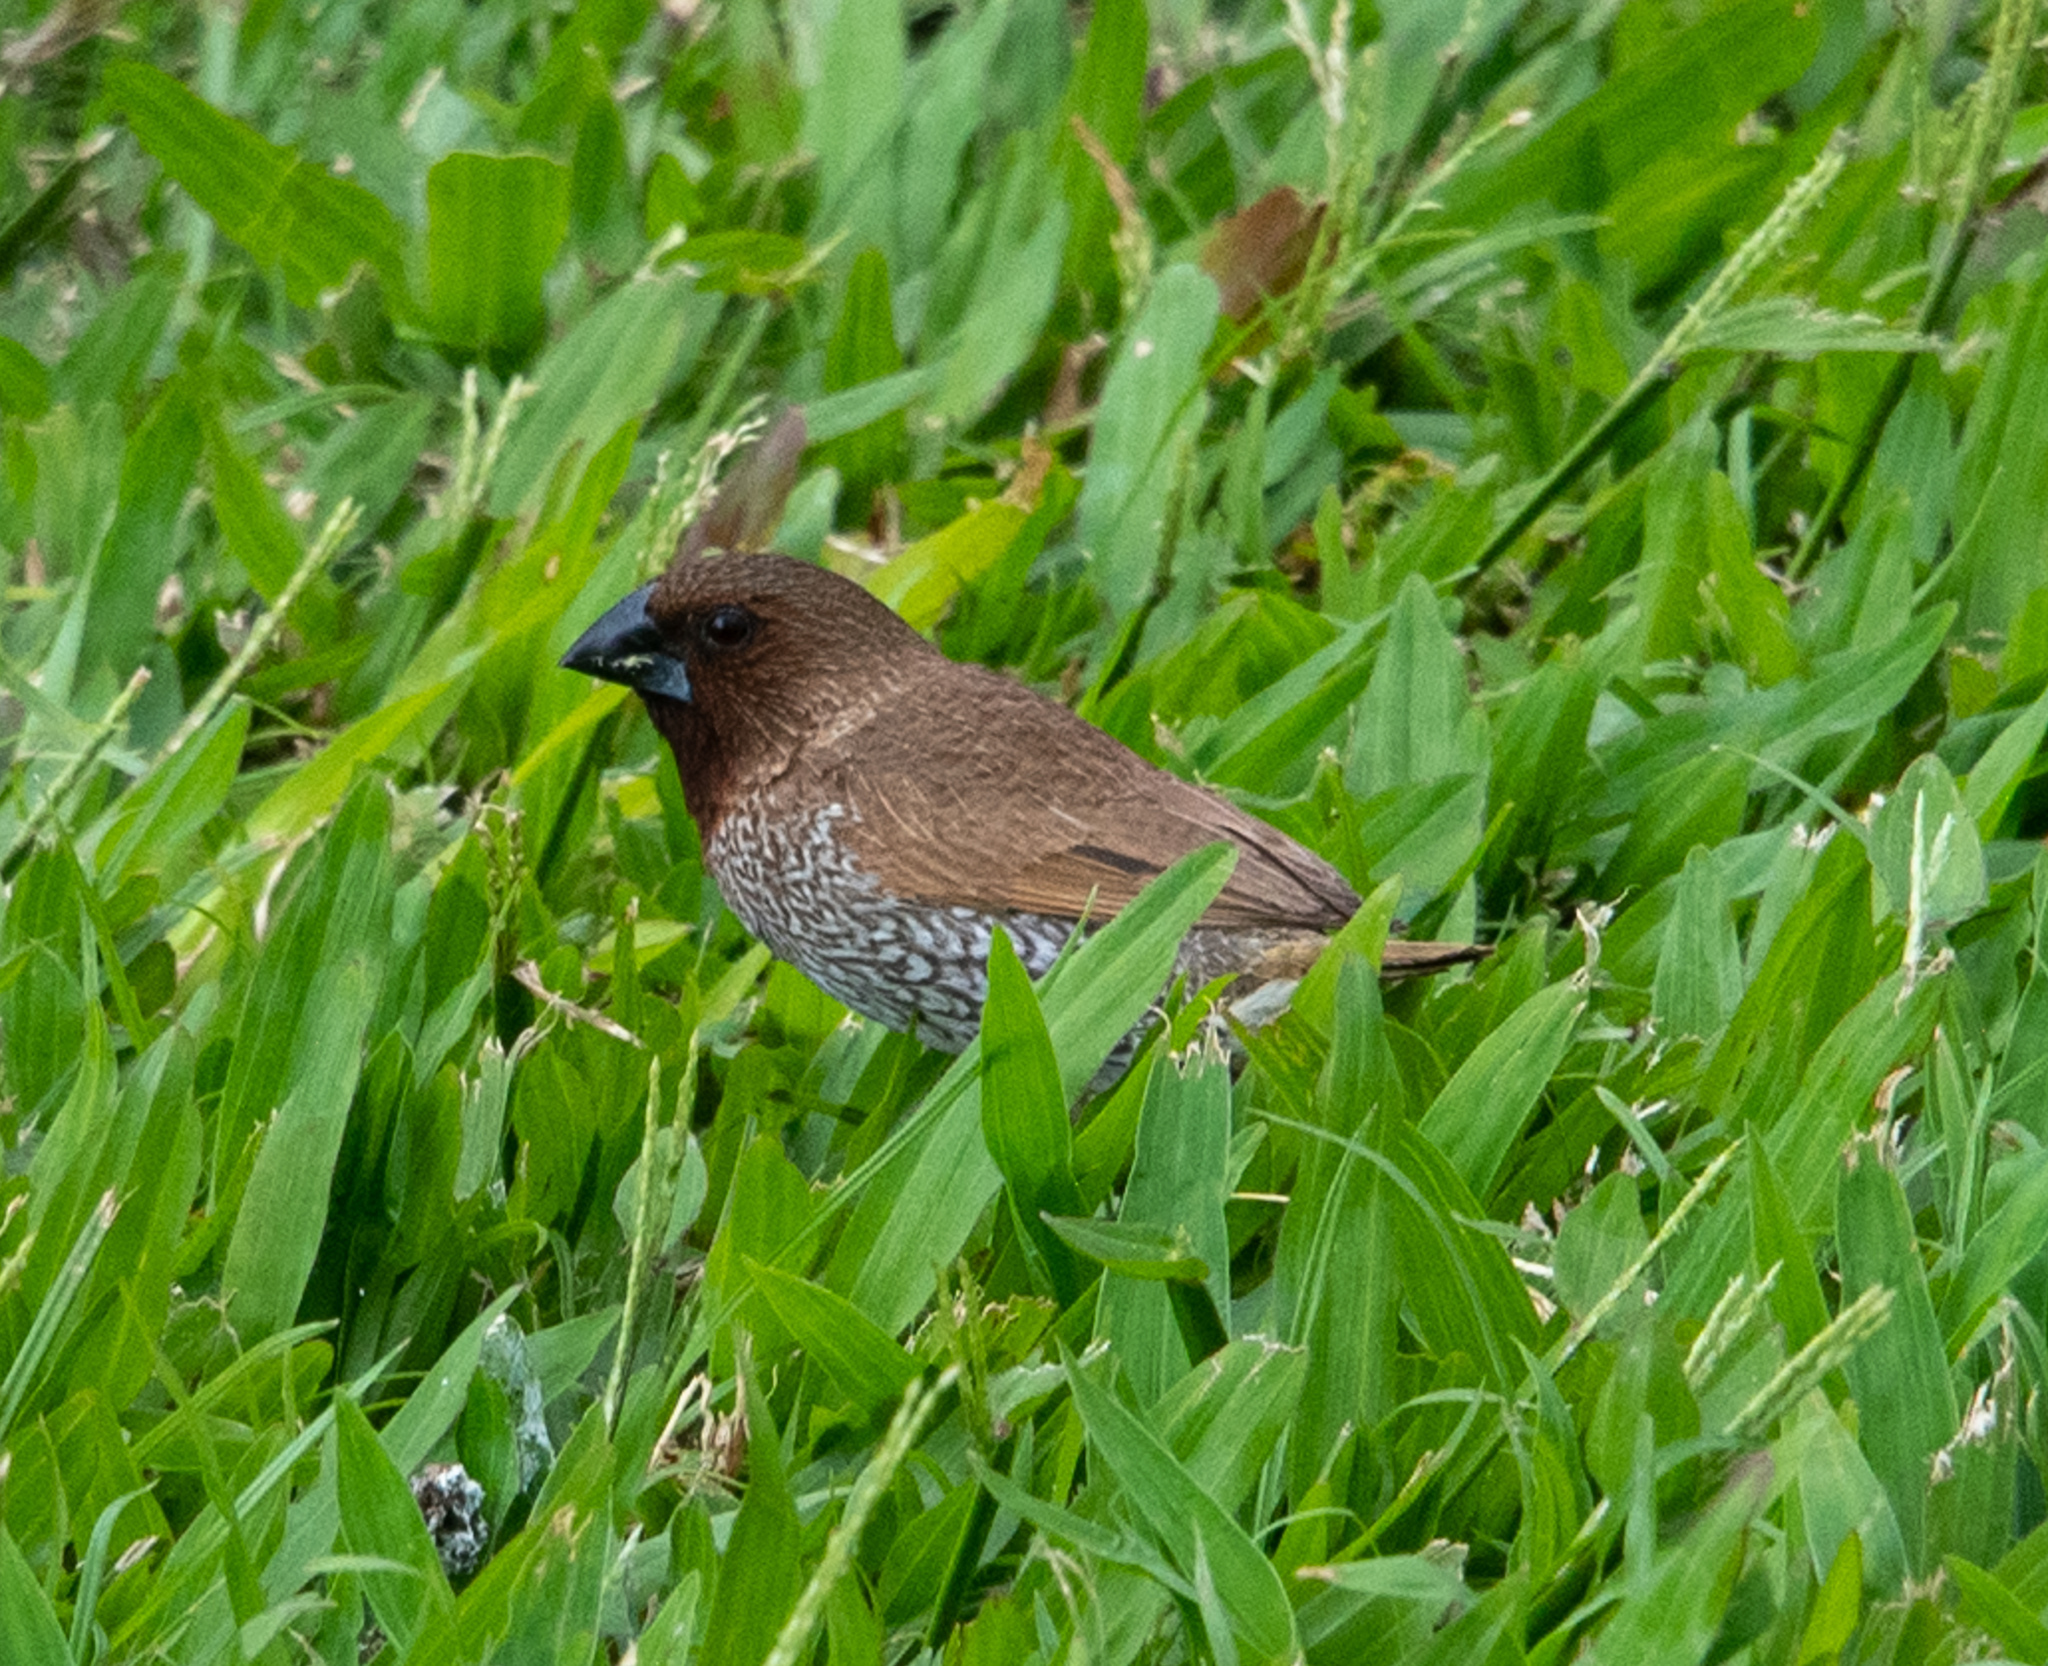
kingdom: Animalia
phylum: Chordata
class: Aves
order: Passeriformes
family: Estrildidae
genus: Lonchura
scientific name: Lonchura punctulata
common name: Scaly-breasted munia
